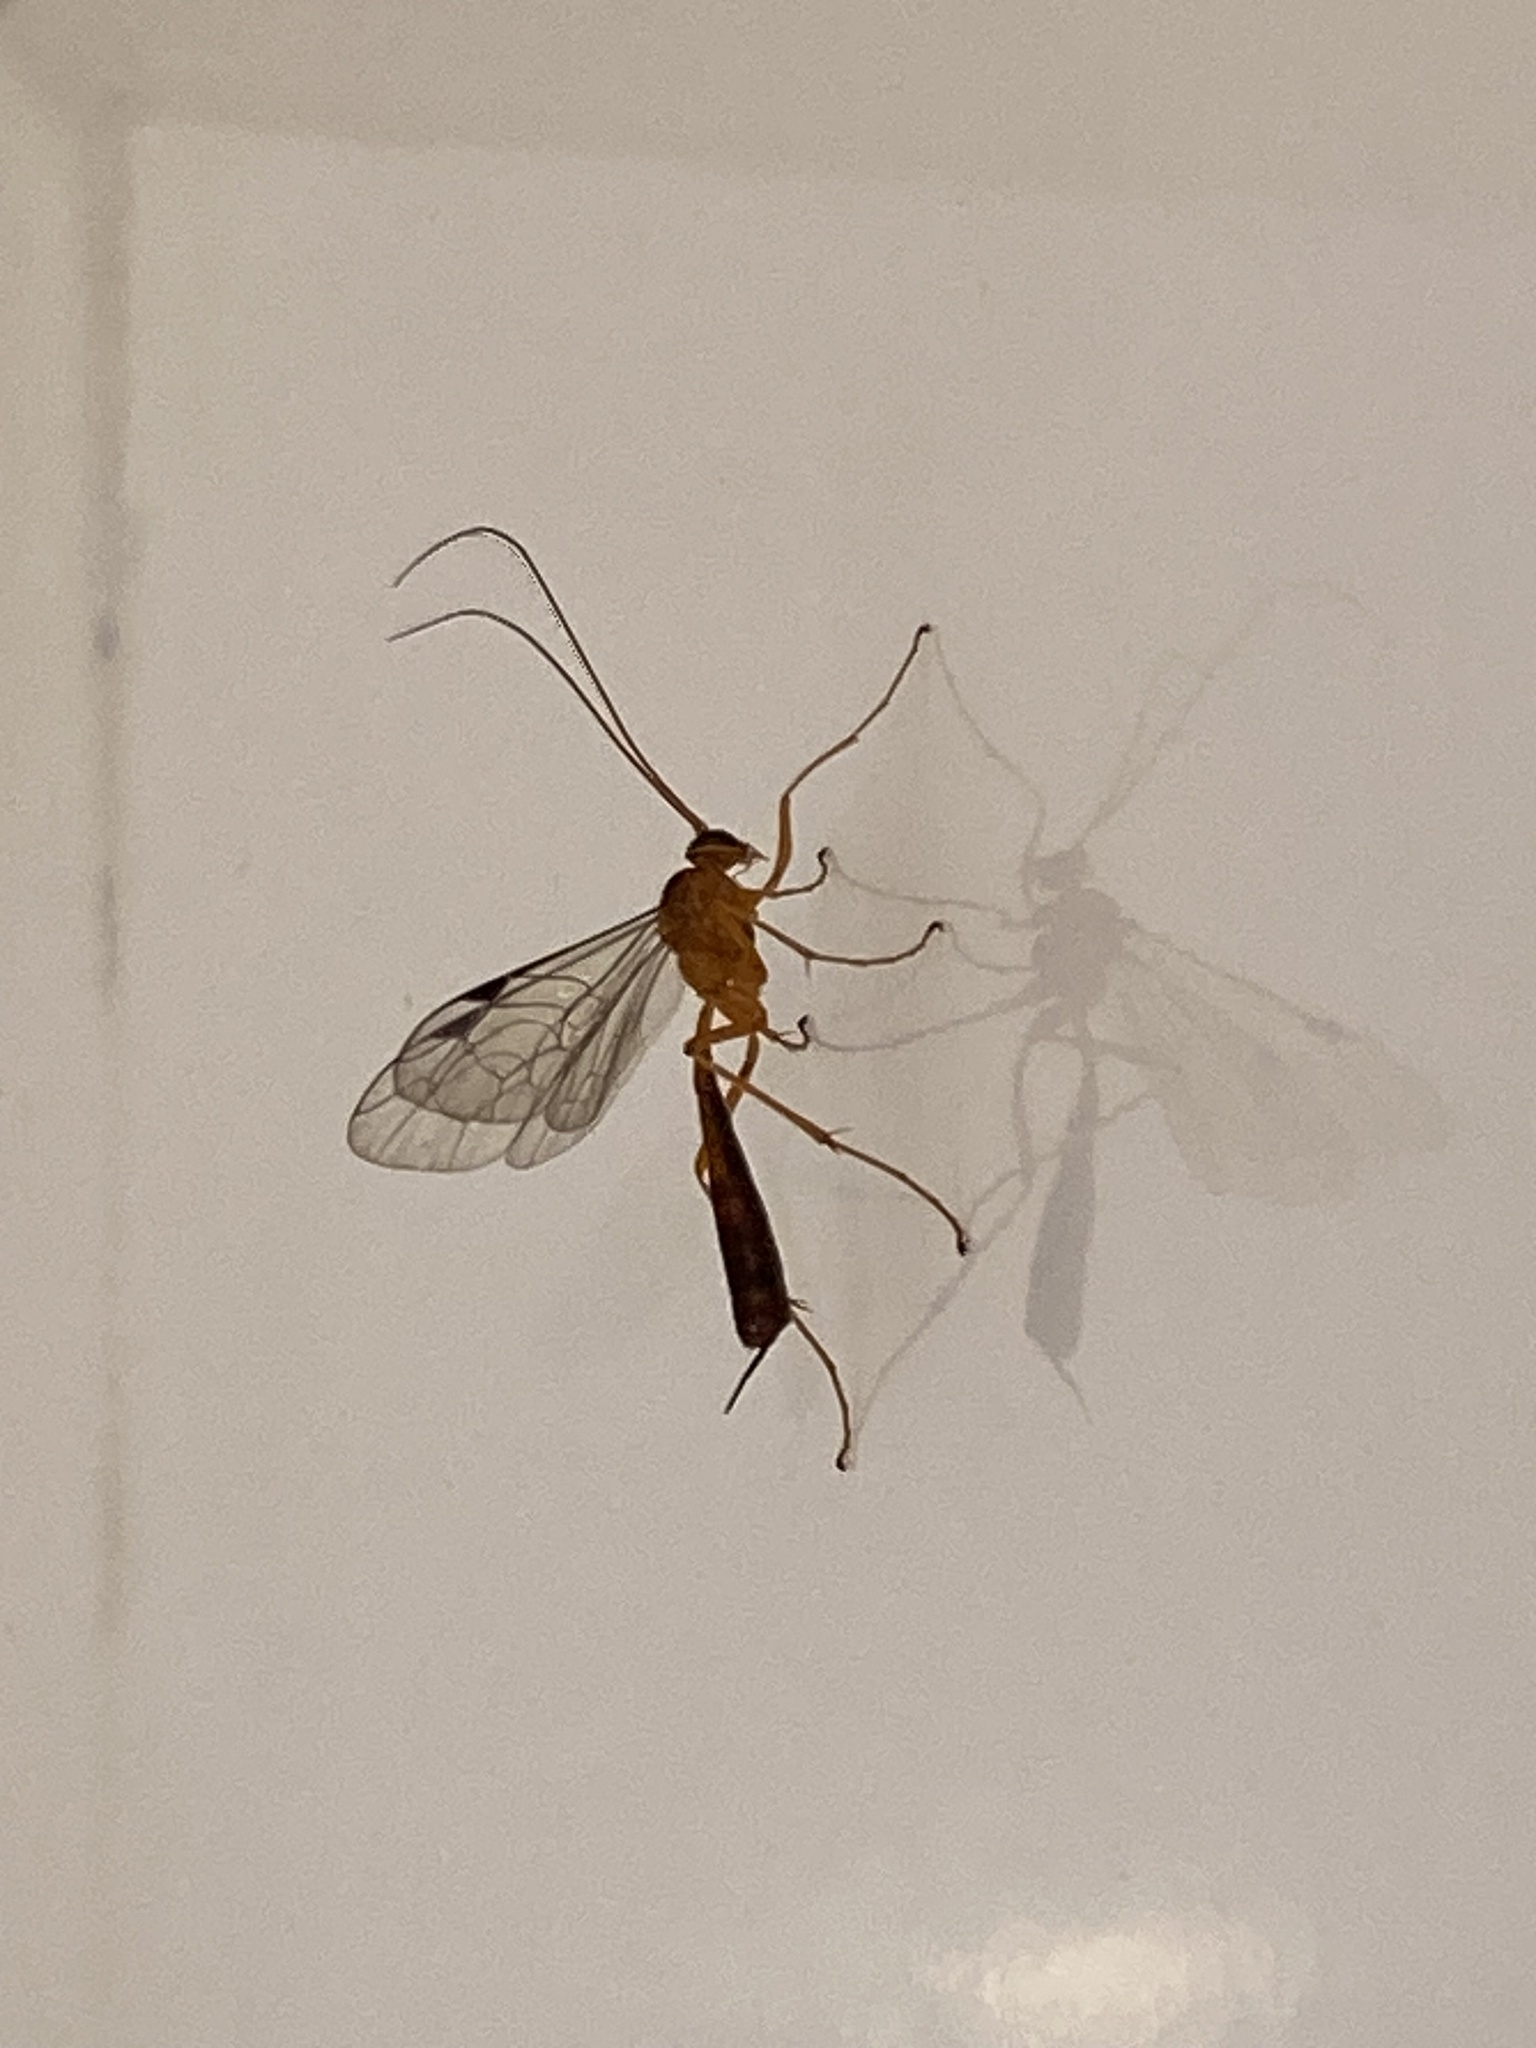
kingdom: Animalia
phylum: Arthropoda
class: Insecta
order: Hymenoptera
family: Ichneumonidae
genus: Netelia
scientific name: Netelia ephippiata
